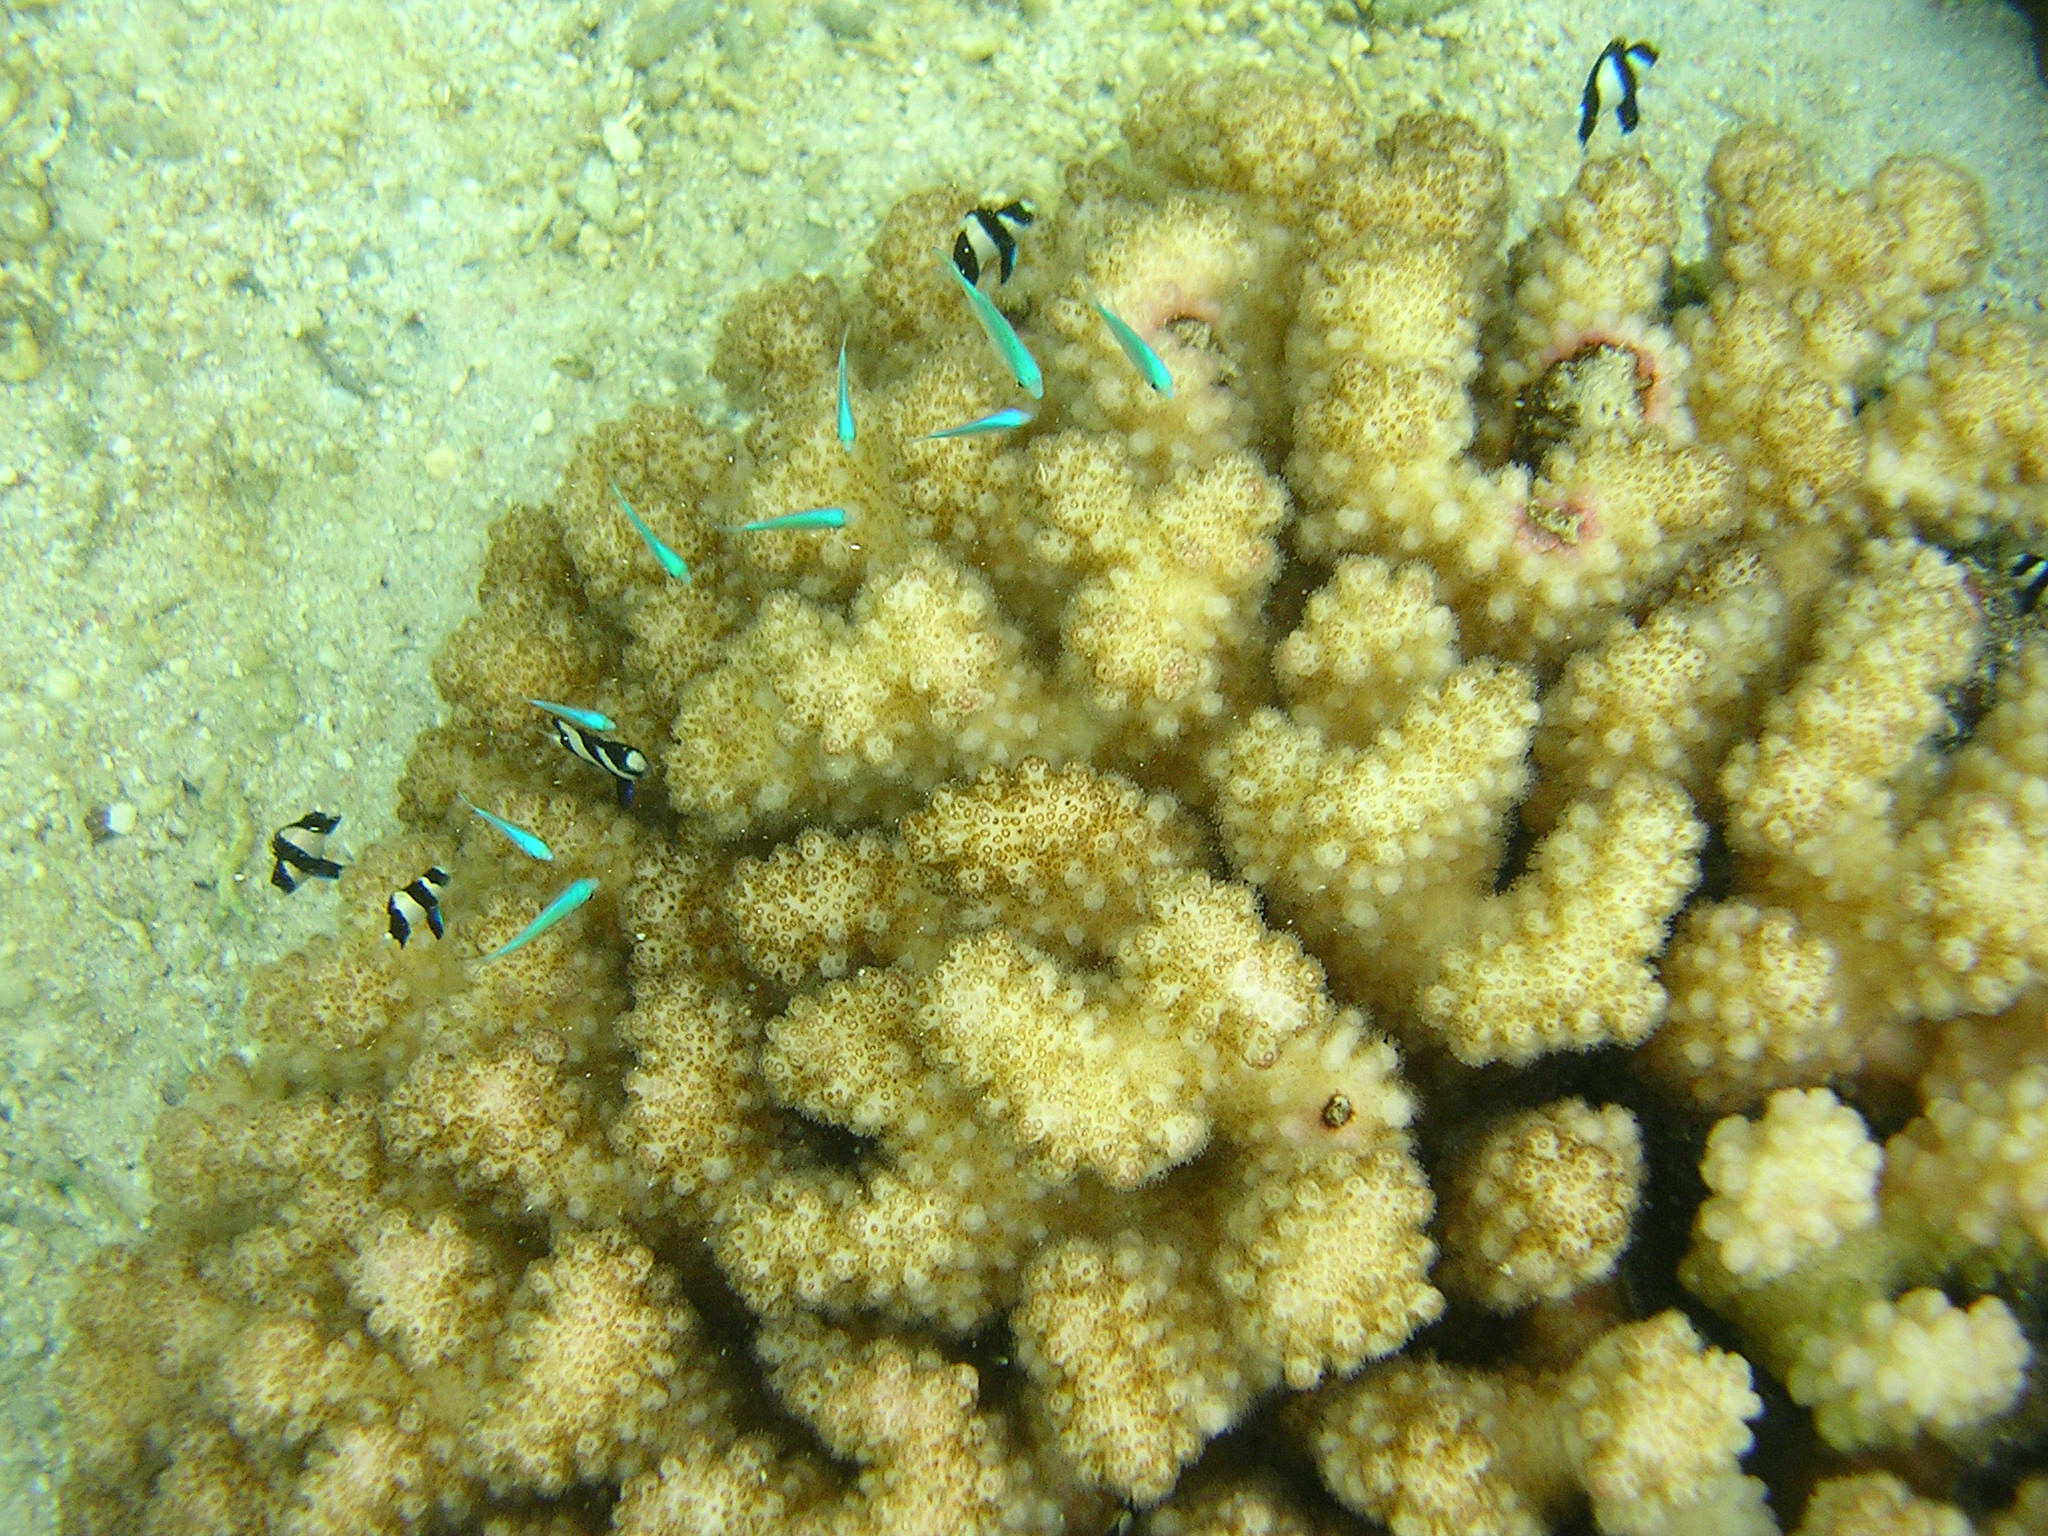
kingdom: Animalia
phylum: Cnidaria
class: Anthozoa
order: Scleractinia
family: Pocilloporidae
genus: Pocillopora
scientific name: Pocillopora verrucosa
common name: Cauliflower coral
